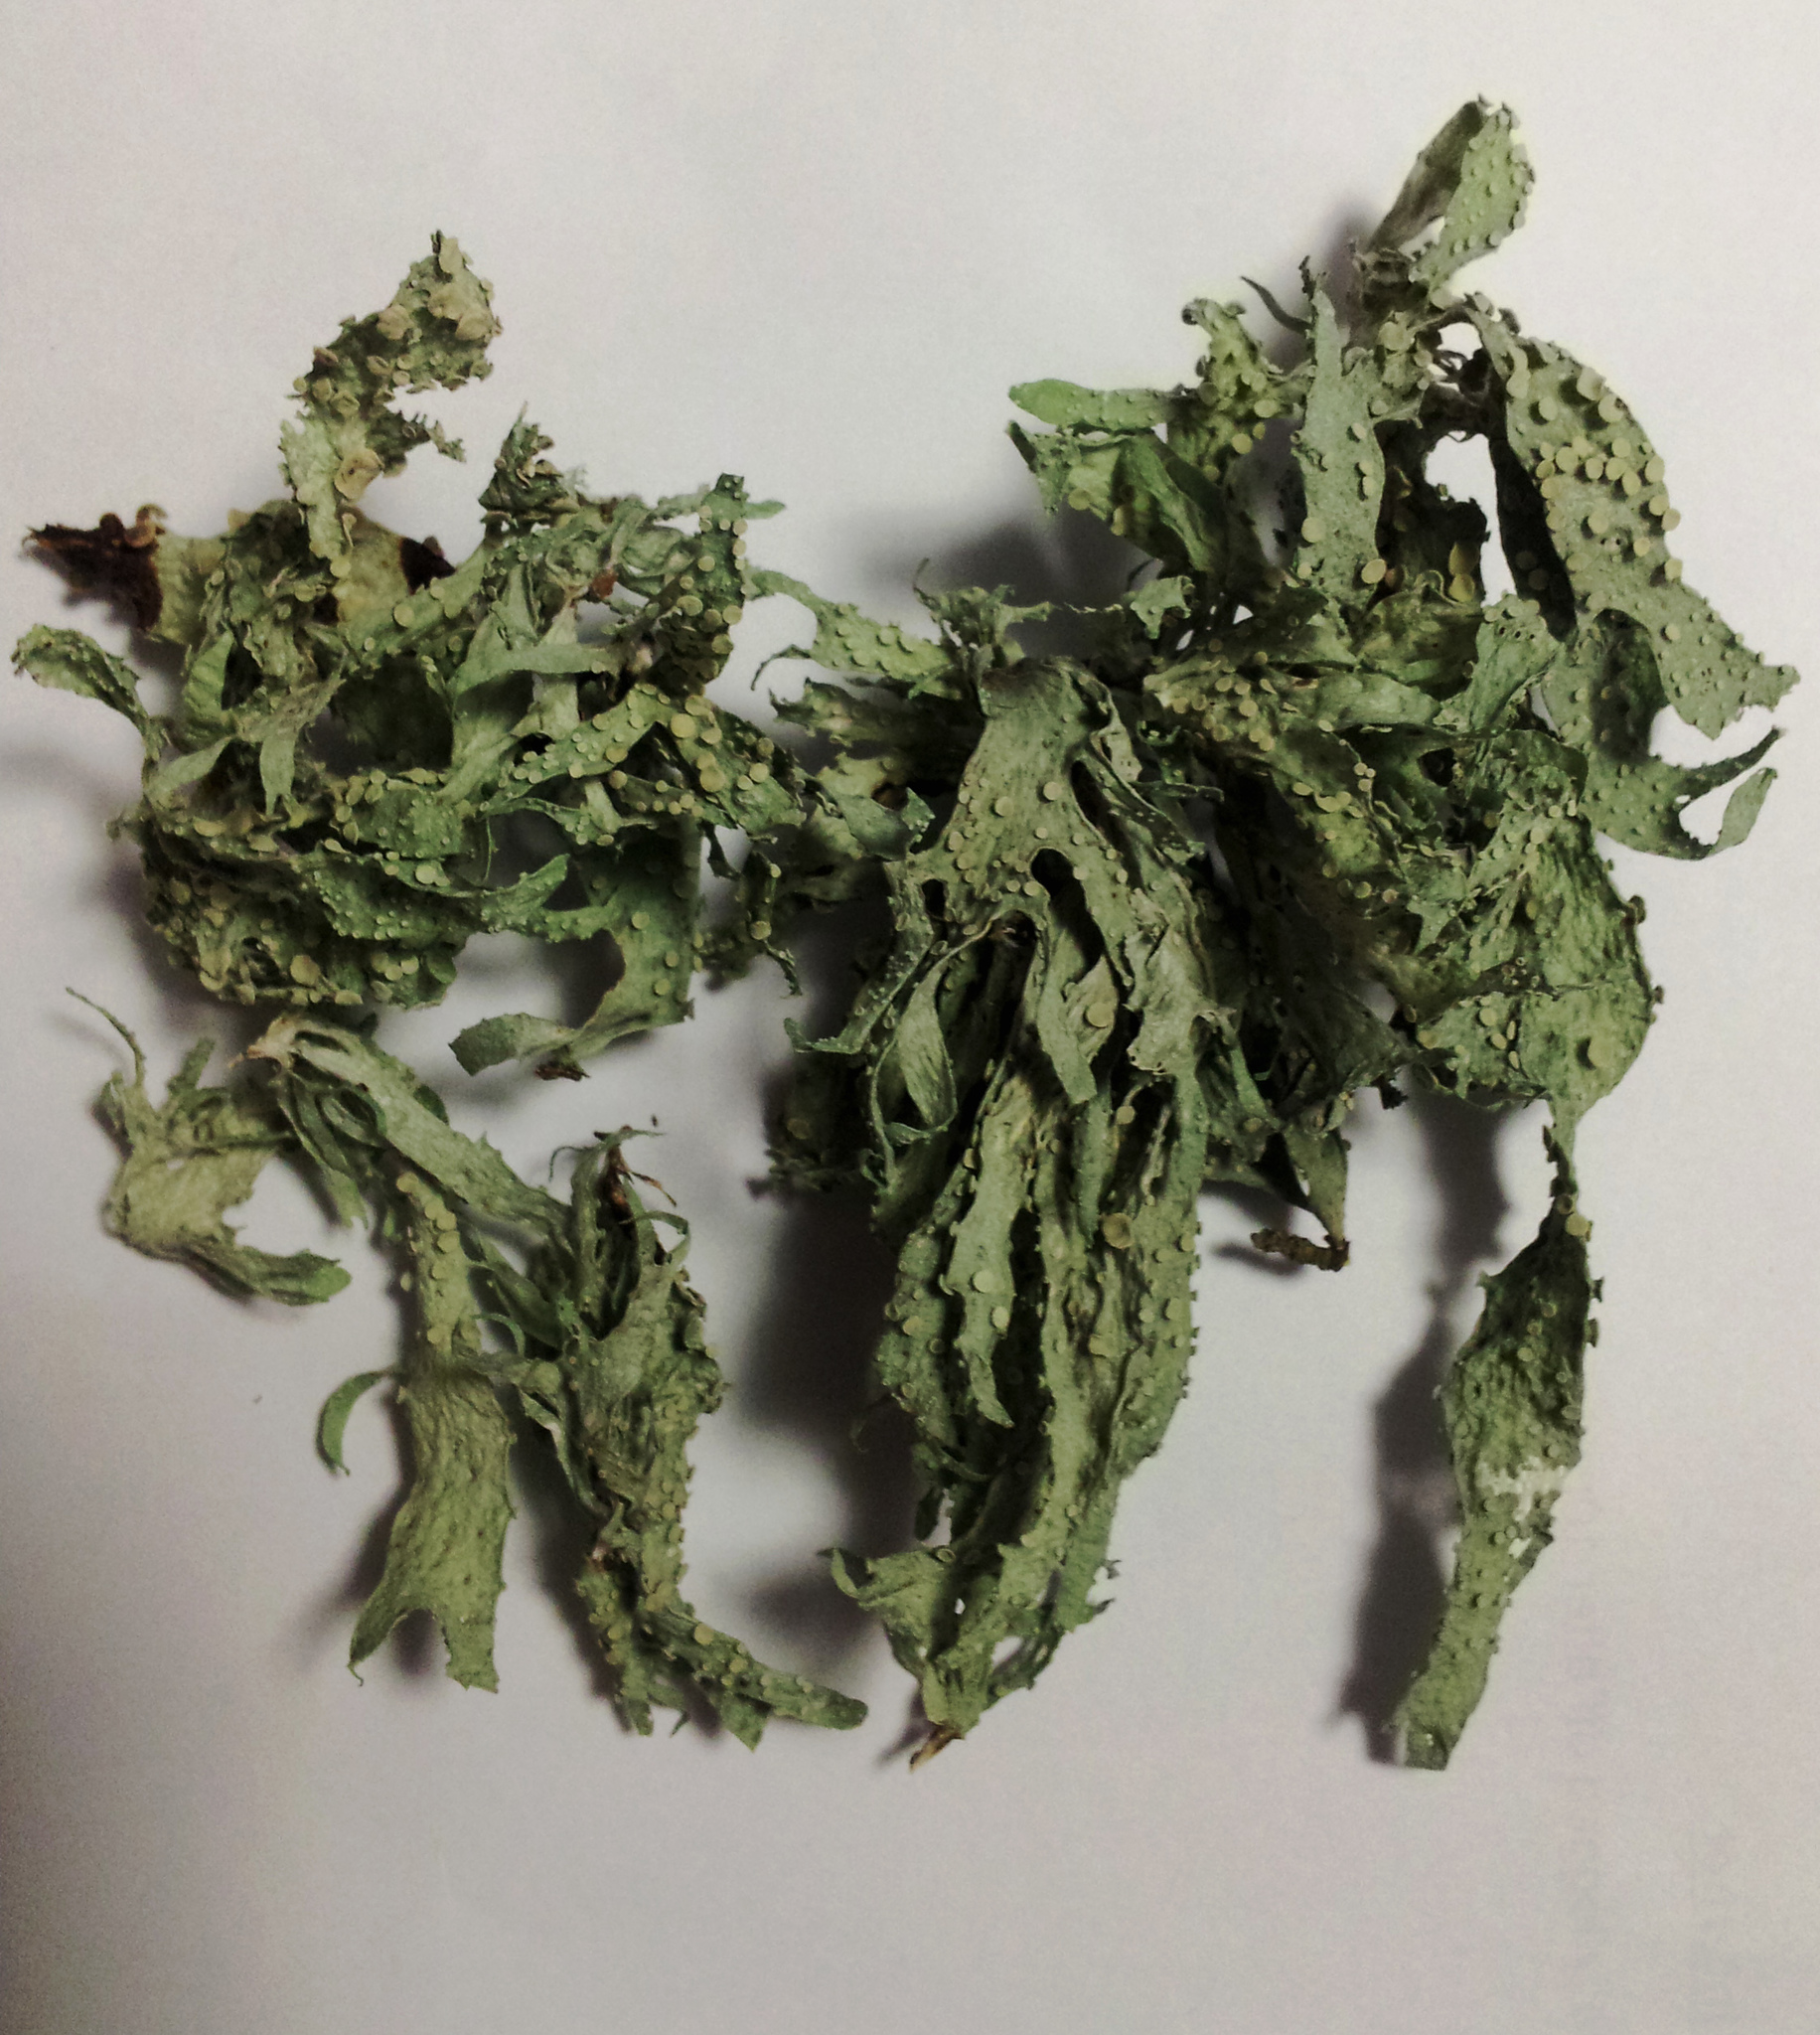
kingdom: Fungi
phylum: Ascomycota
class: Lecanoromycetes
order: Lecanorales
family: Ramalinaceae
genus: Ramalina
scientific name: Ramalina celastri
